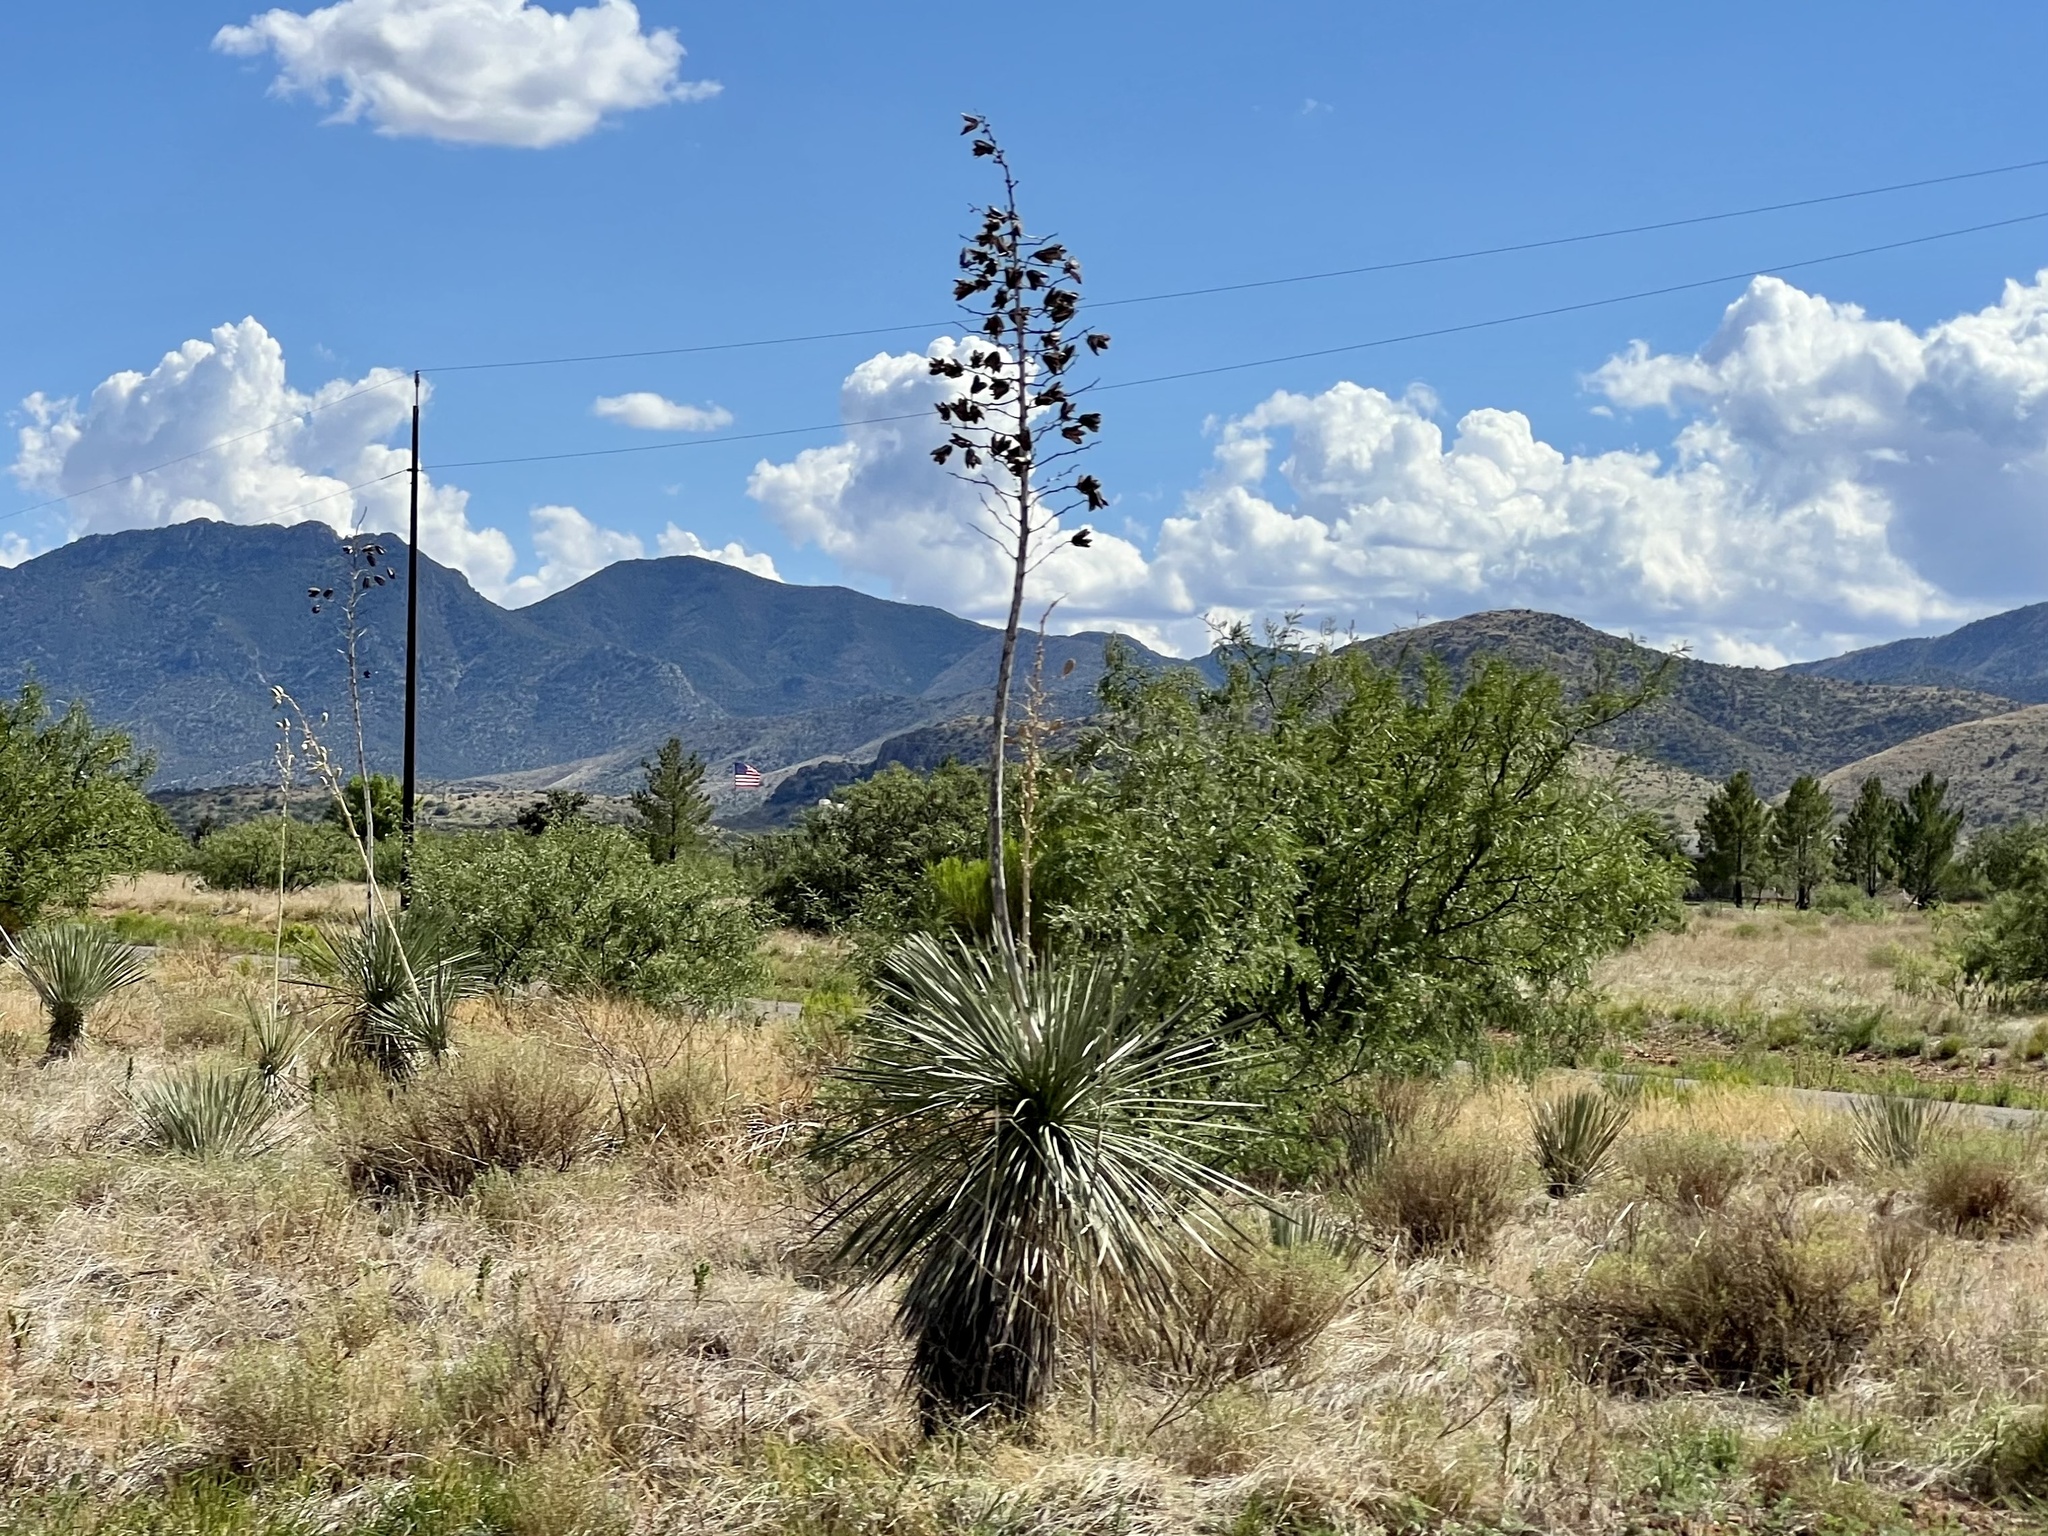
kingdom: Plantae
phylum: Tracheophyta
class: Liliopsida
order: Asparagales
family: Asparagaceae
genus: Yucca
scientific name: Yucca elata
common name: Palmella
